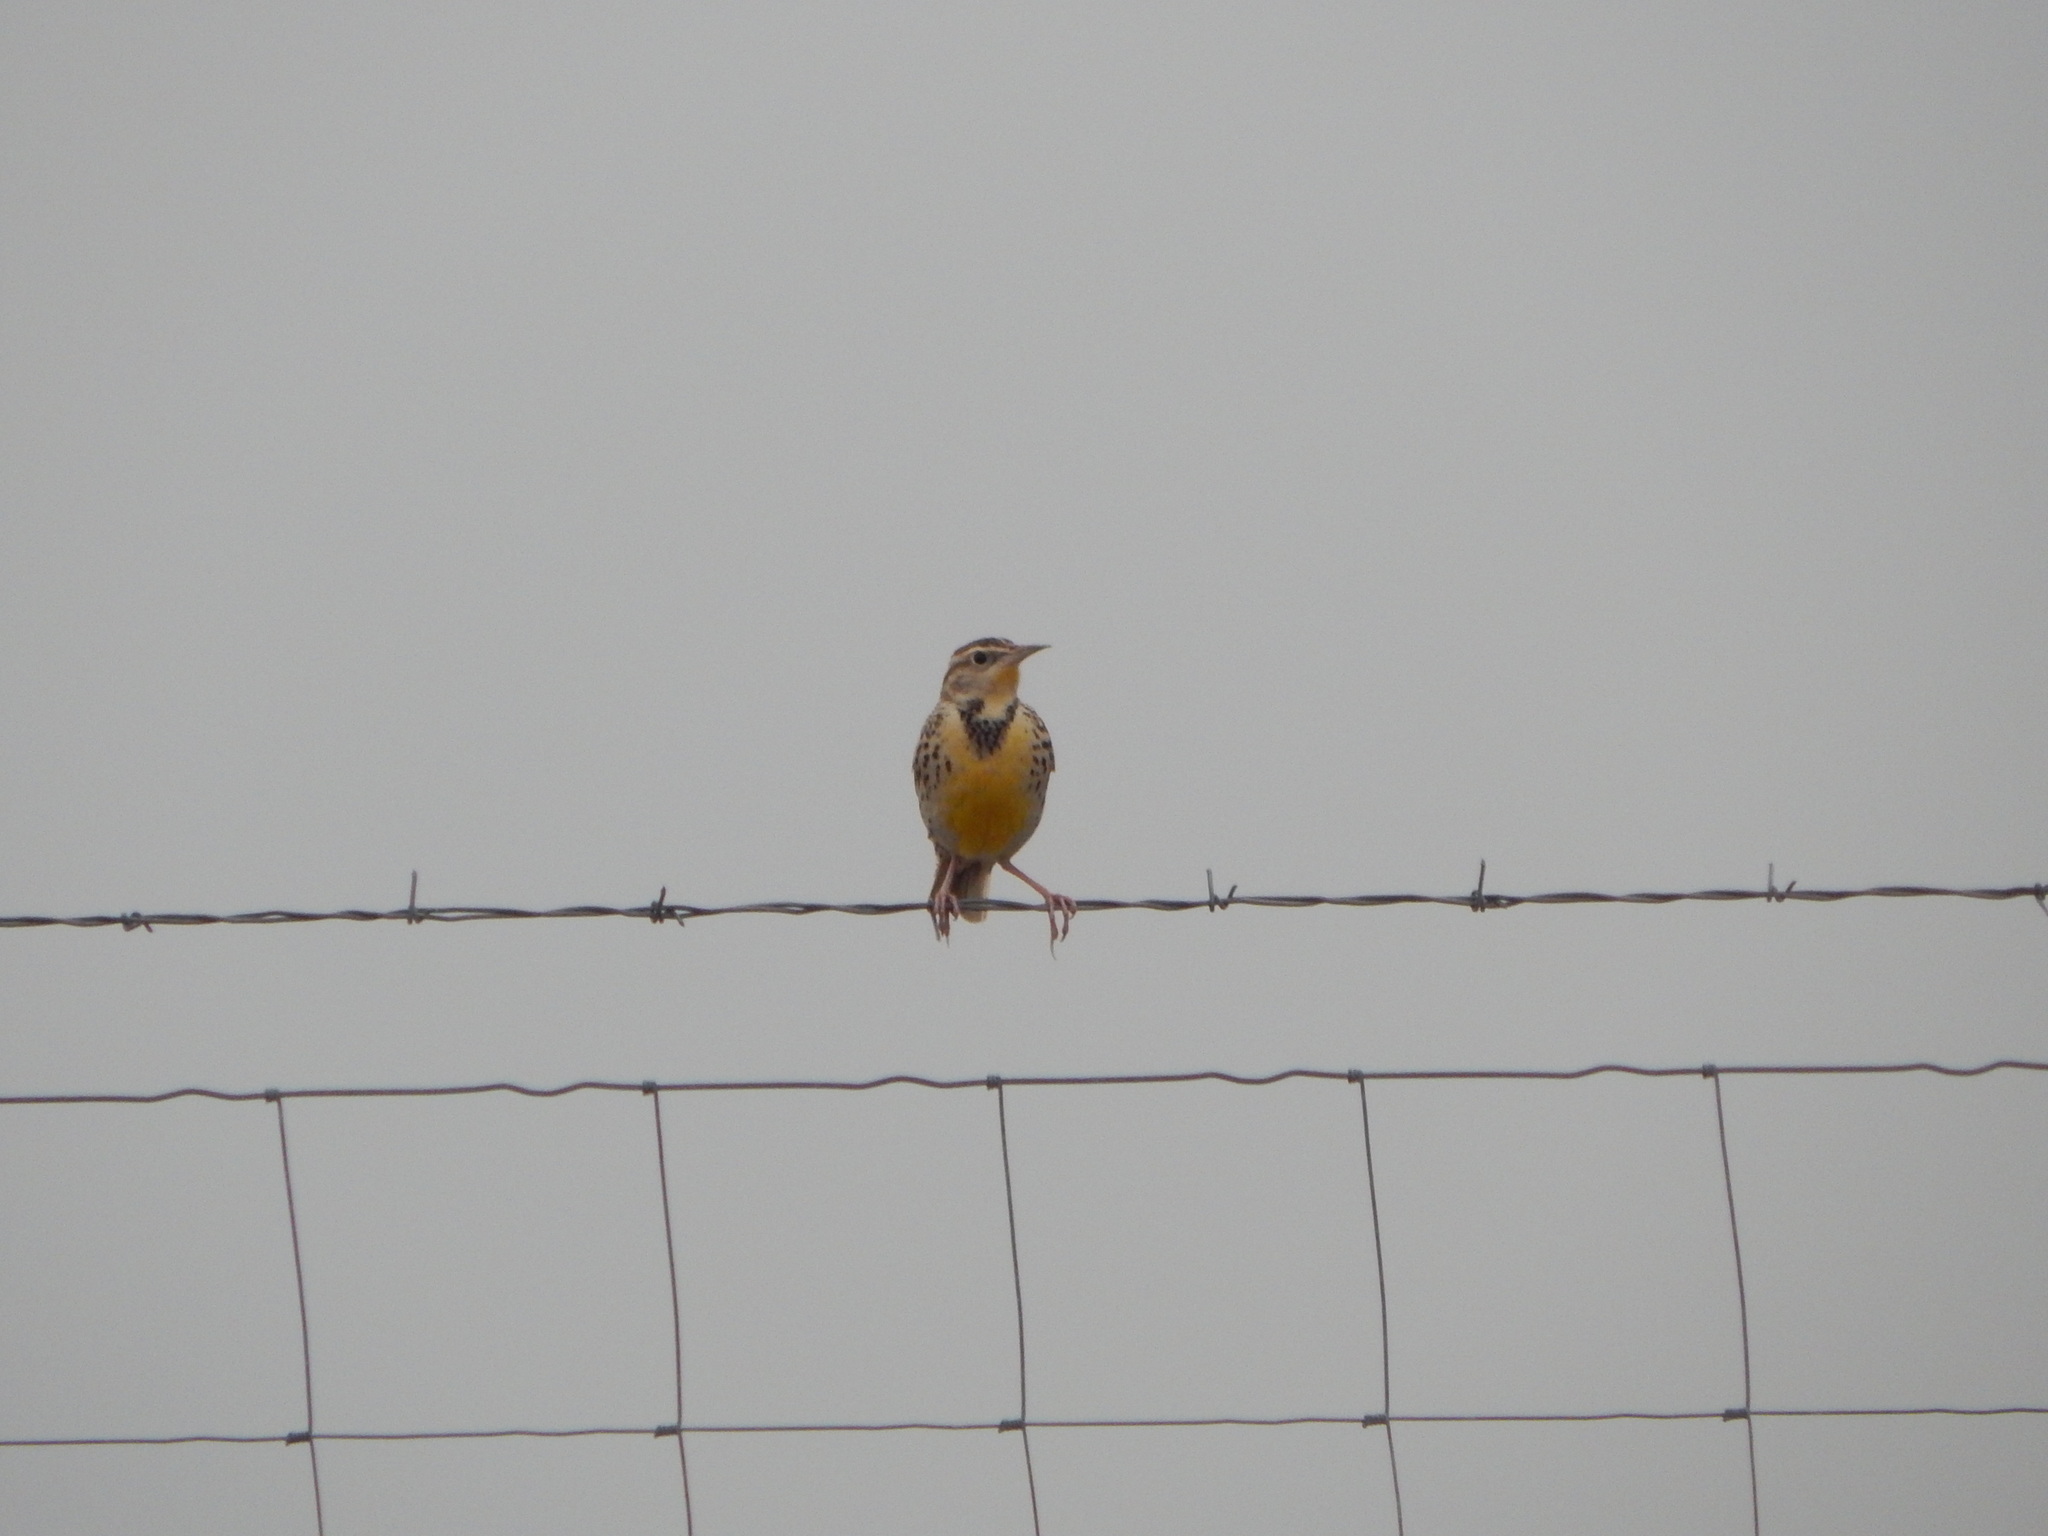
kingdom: Animalia
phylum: Chordata
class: Aves
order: Passeriformes
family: Icteridae
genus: Sturnella
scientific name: Sturnella neglecta
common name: Western meadowlark
